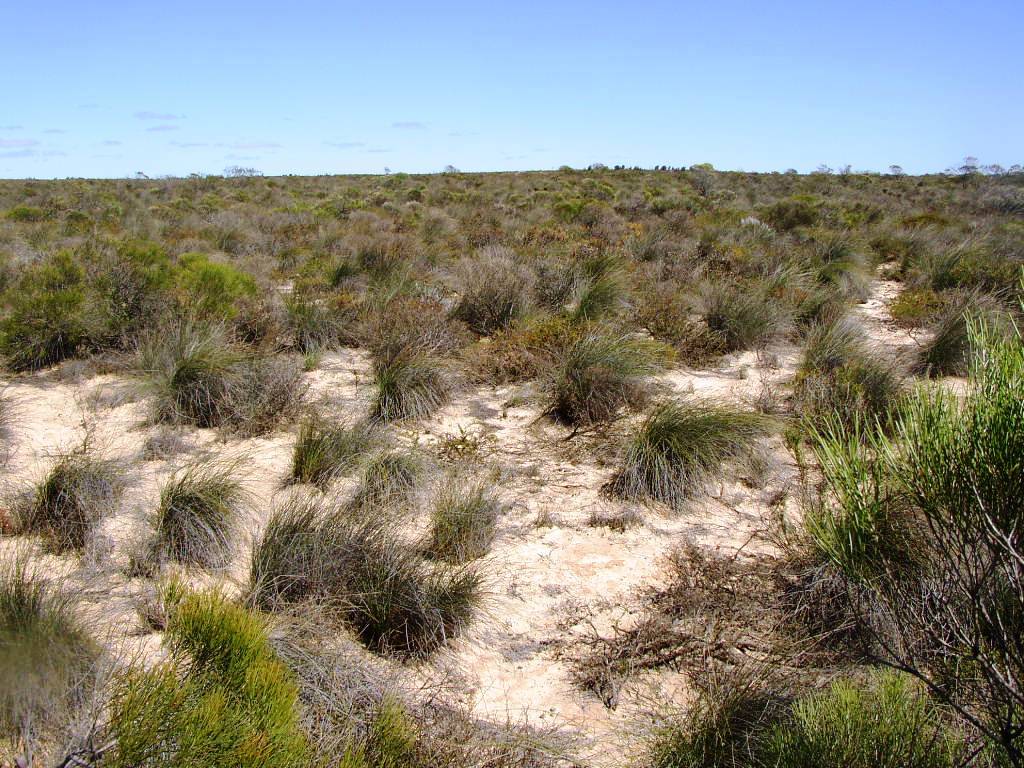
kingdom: Plantae
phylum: Tracheophyta
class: Liliopsida
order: Poales
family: Ecdeiocoleaceae
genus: Ecdeiocolea
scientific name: Ecdeiocolea monostachya
